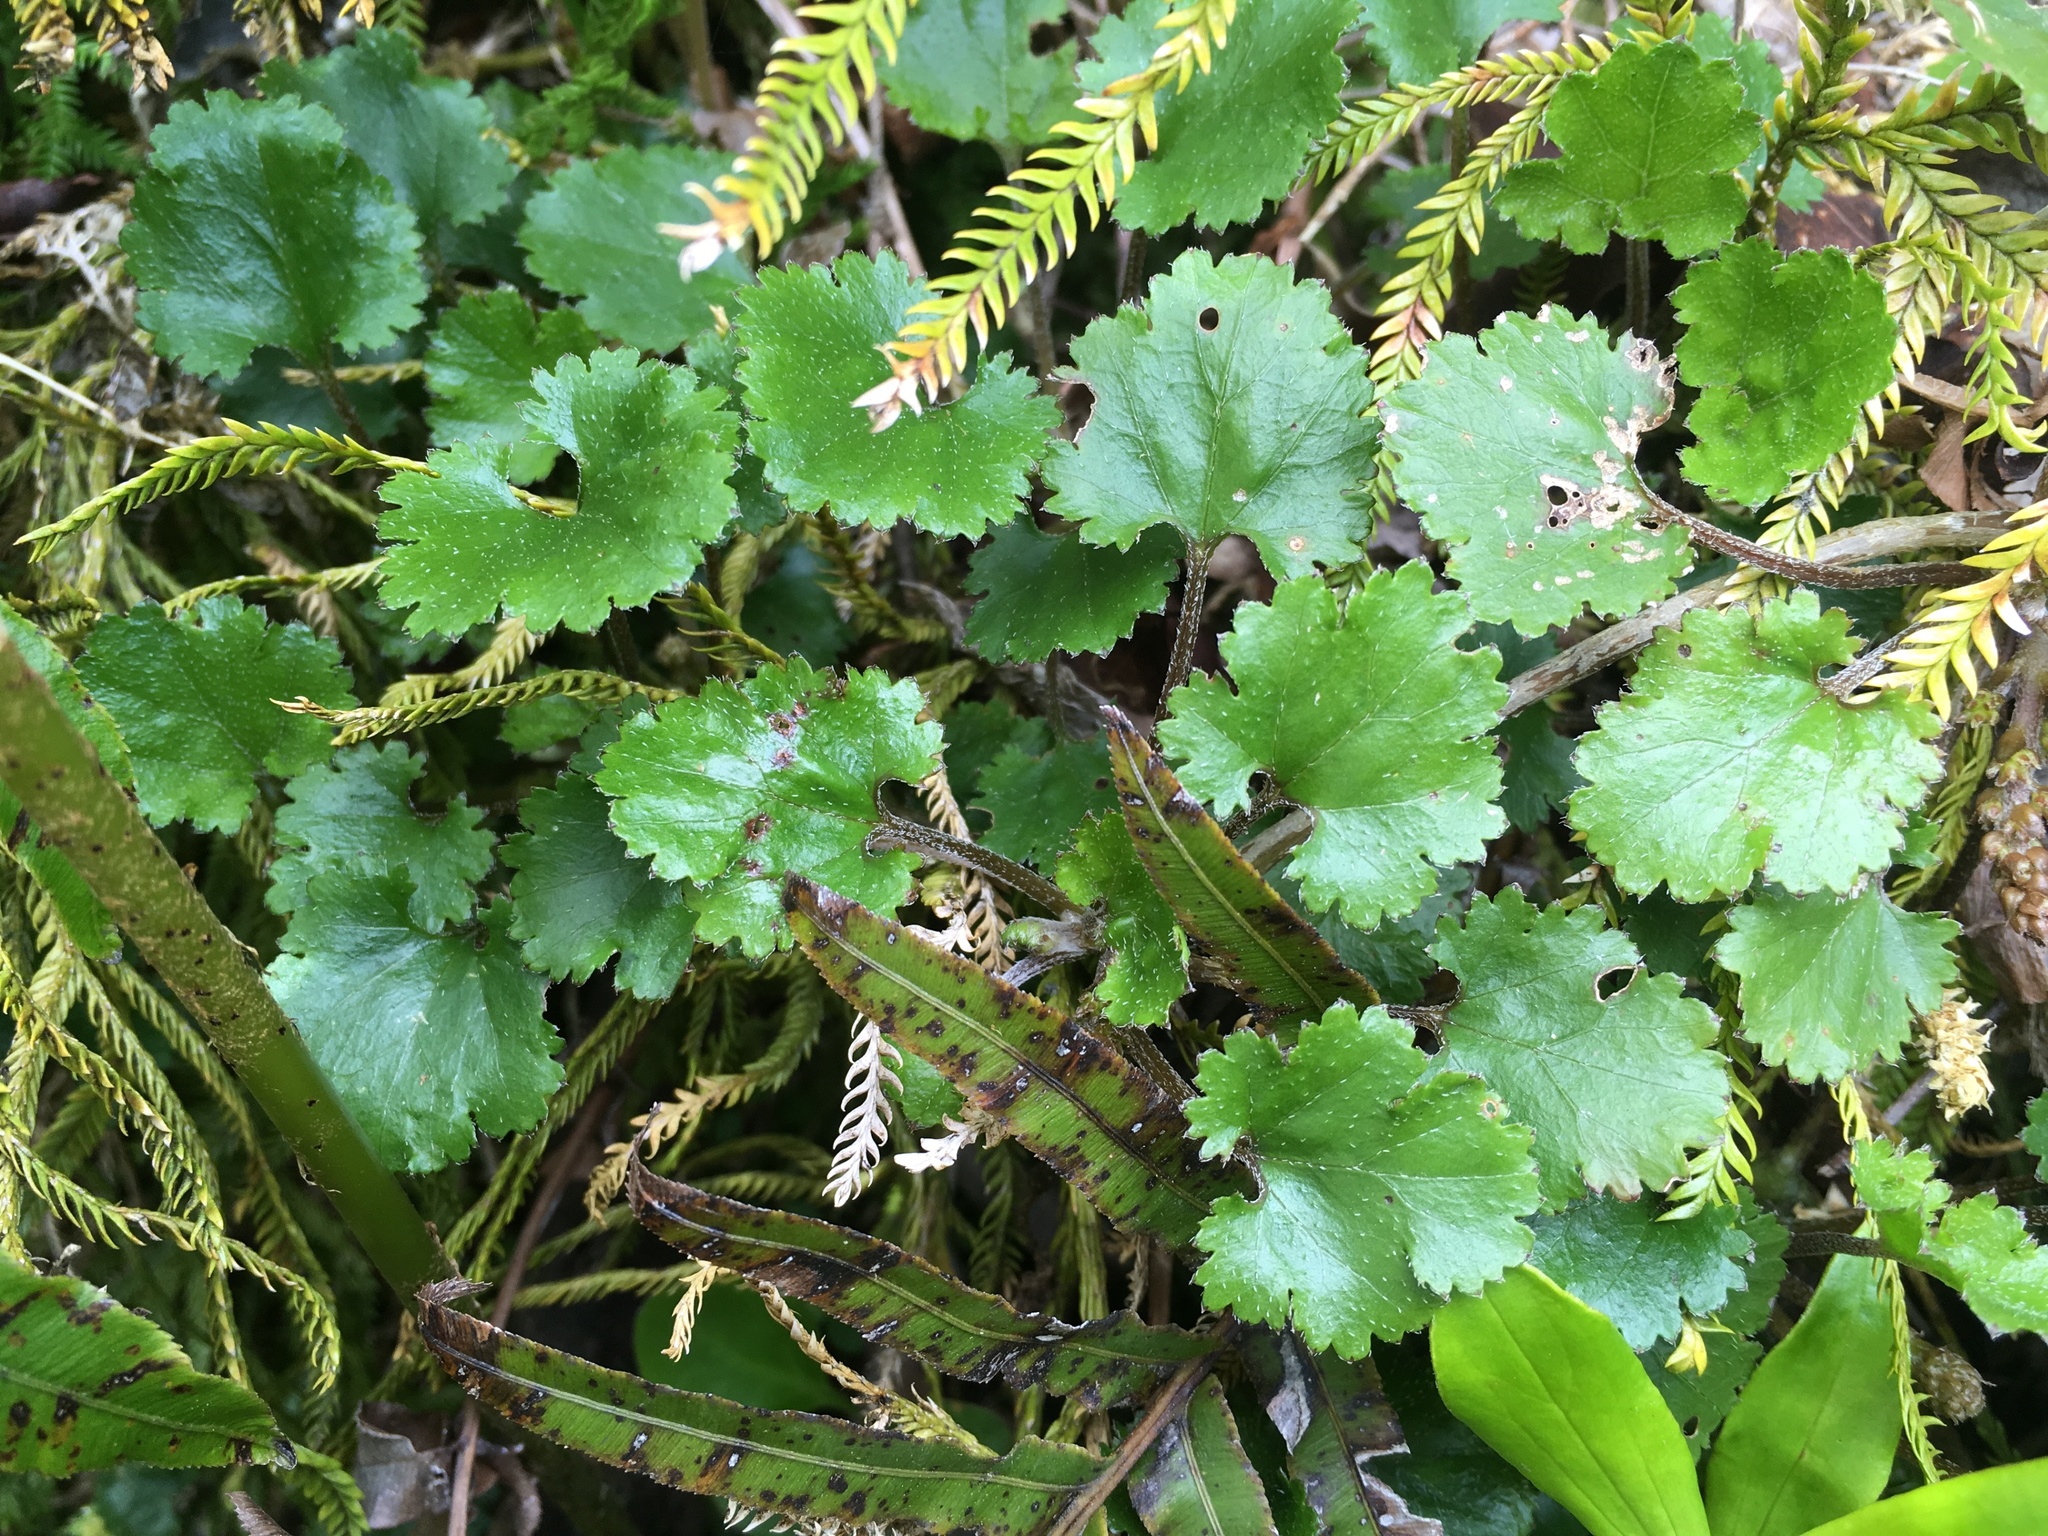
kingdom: Plantae
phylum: Tracheophyta
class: Magnoliopsida
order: Gunnerales
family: Gunneraceae
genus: Gunnera
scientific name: Gunnera monoica
